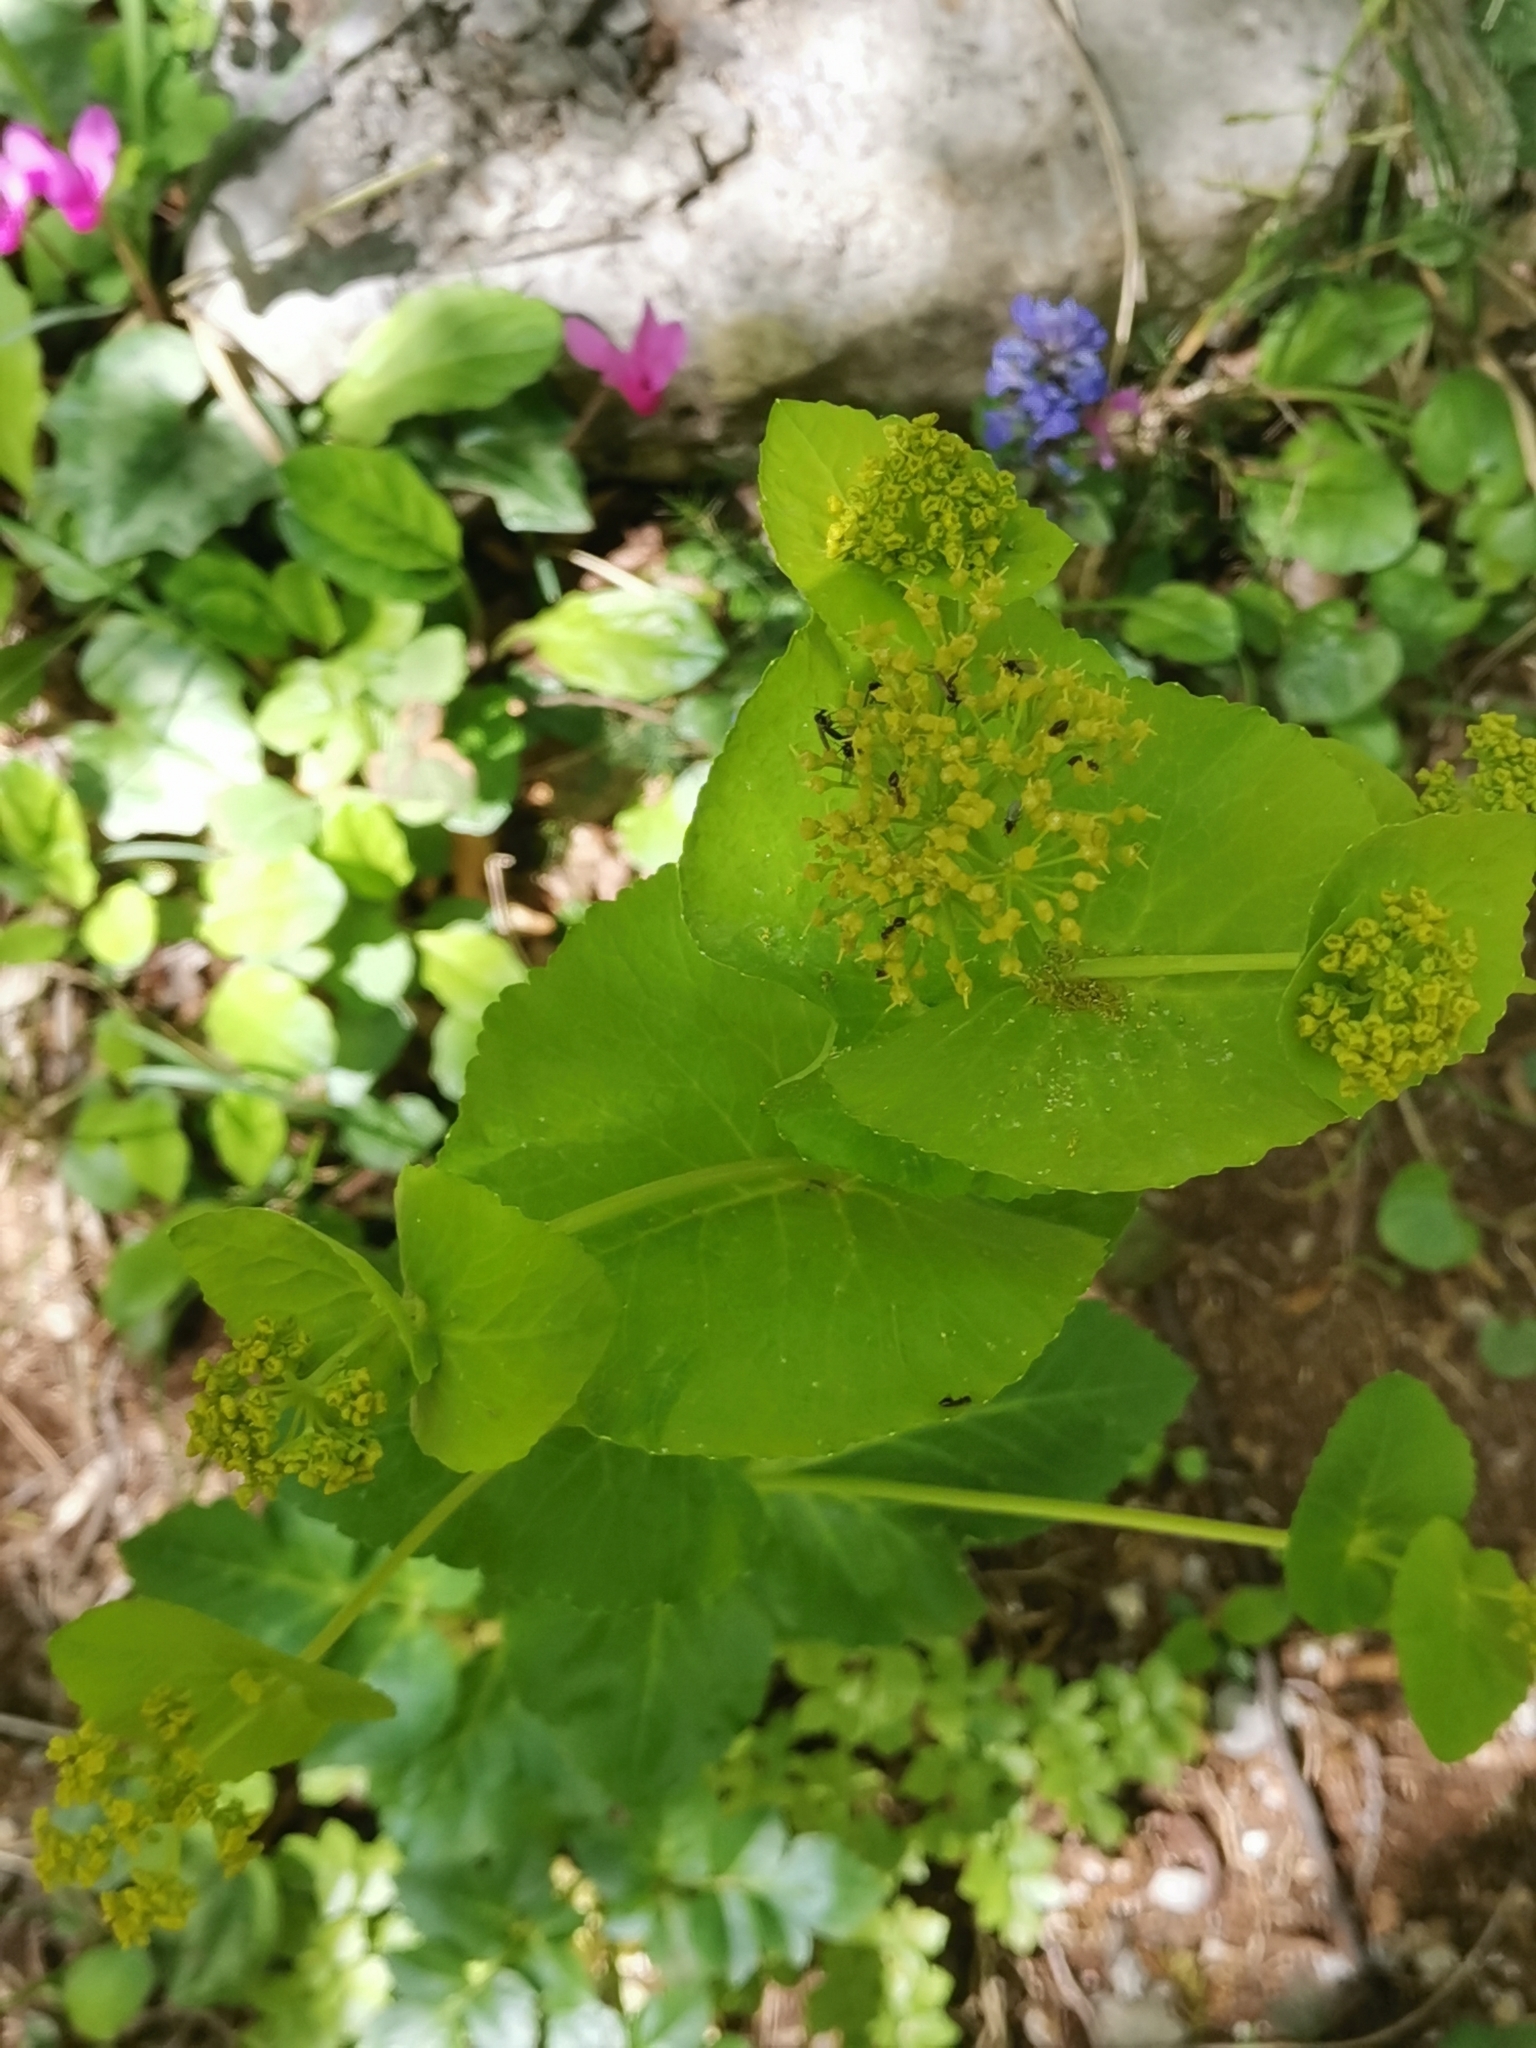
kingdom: Plantae
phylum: Tracheophyta
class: Magnoliopsida
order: Apiales
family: Apiaceae
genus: Smyrnium
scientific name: Smyrnium perfoliatum
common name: Perfoliate alexanders
